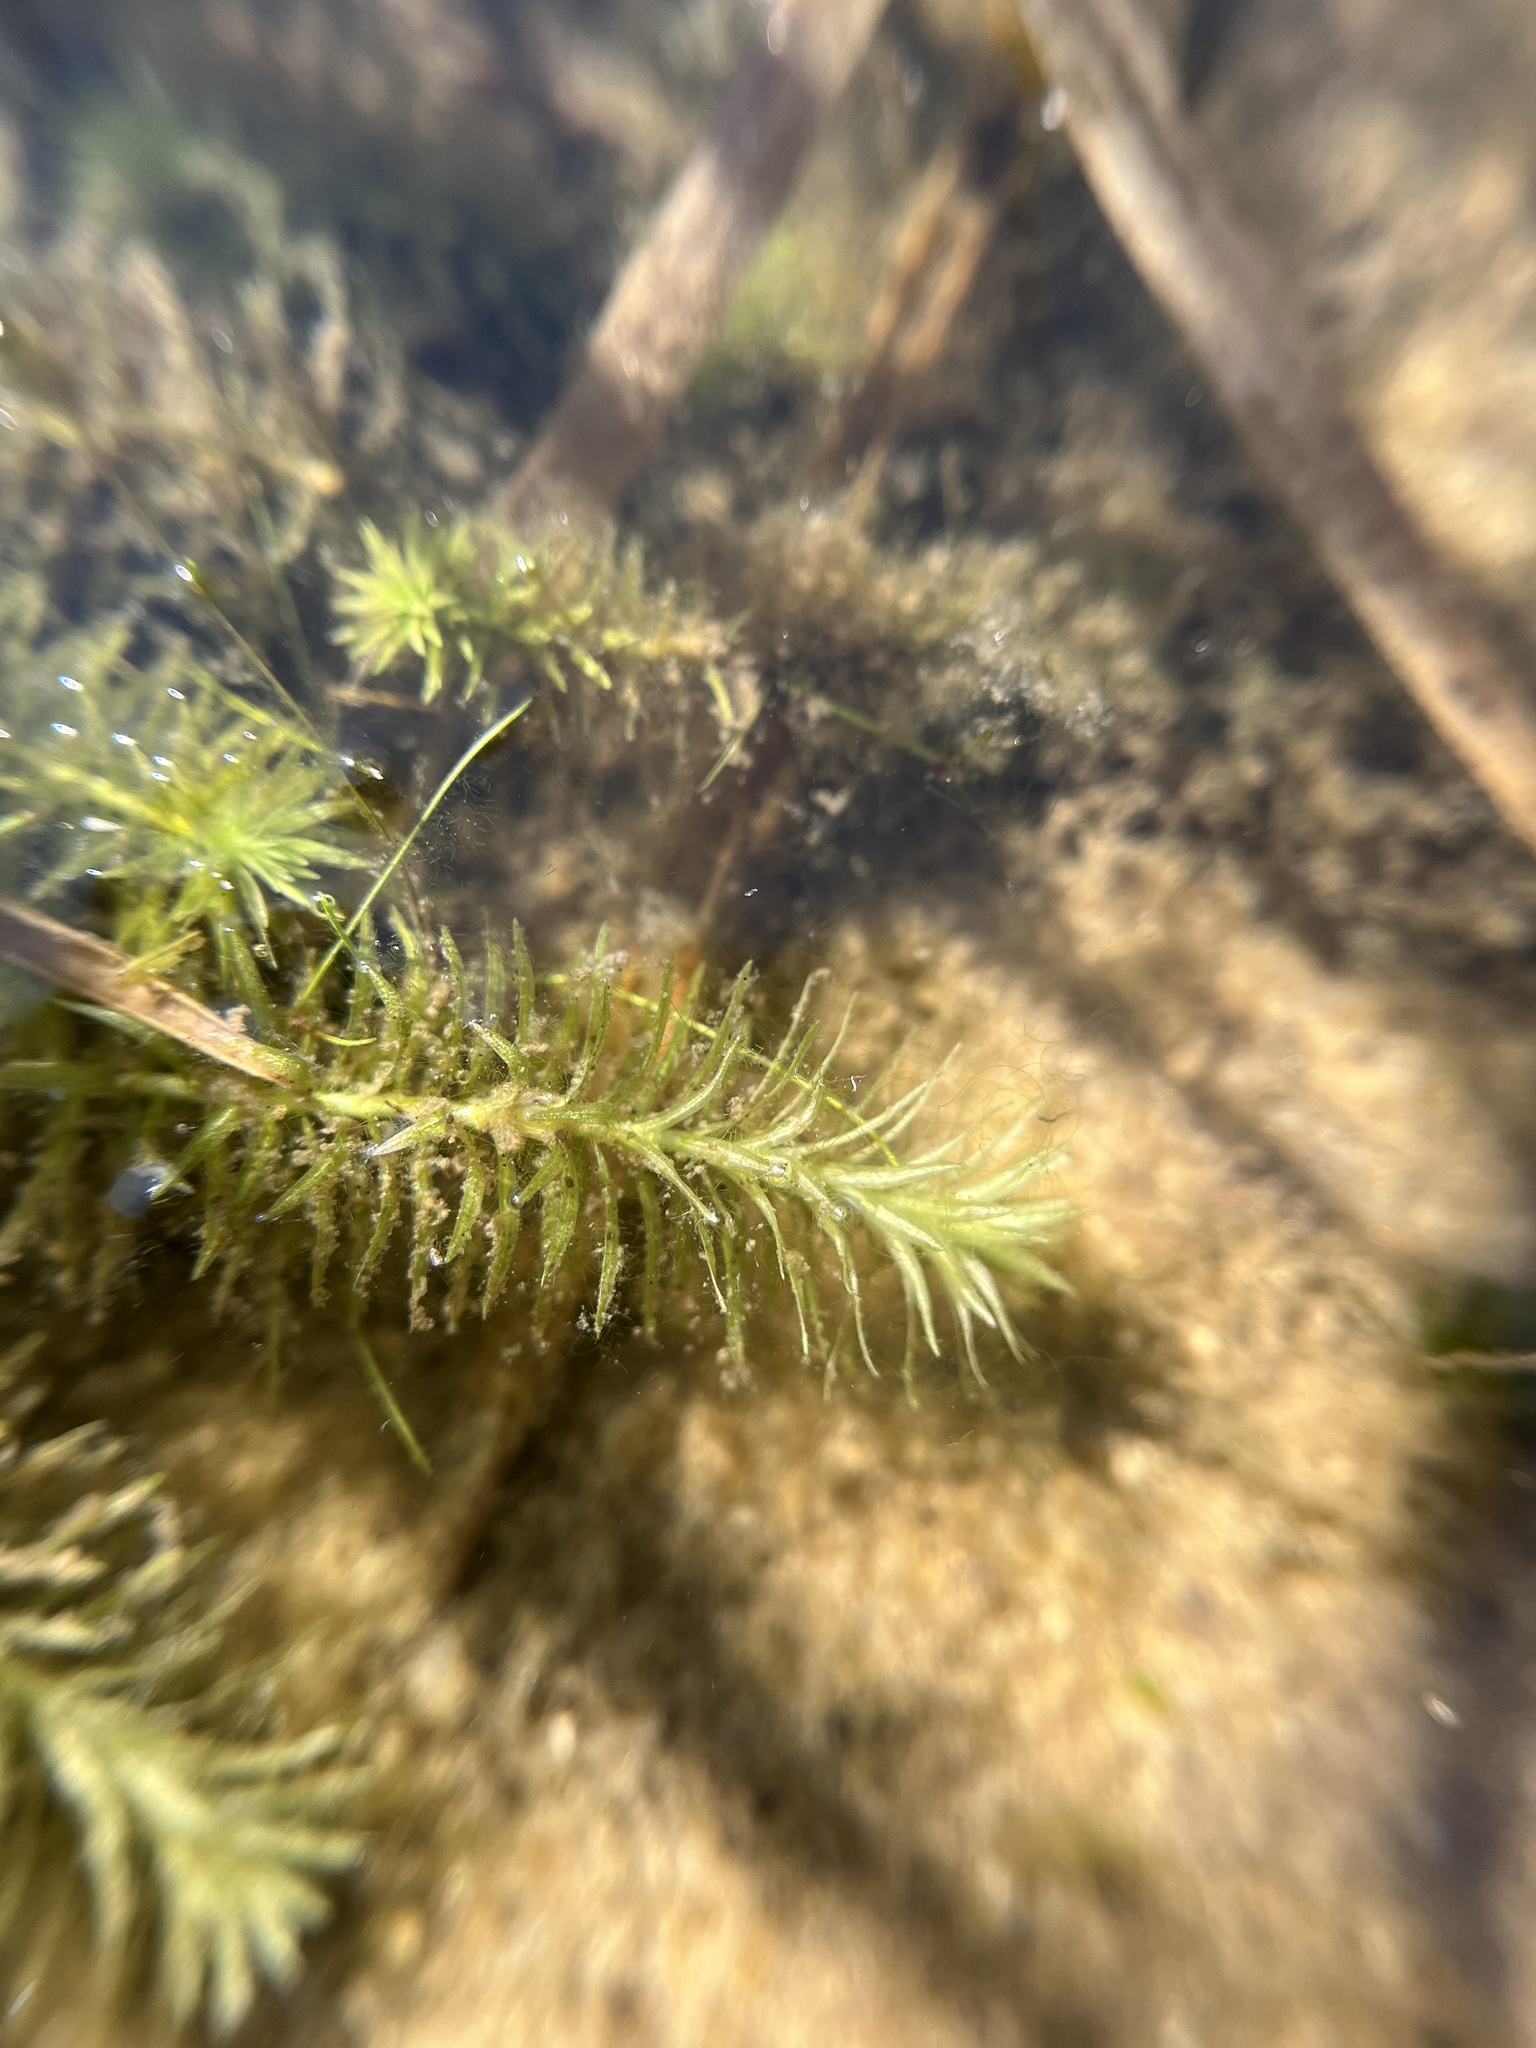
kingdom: Plantae
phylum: Tracheophyta
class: Liliopsida
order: Poales
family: Mayacaceae
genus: Mayaca
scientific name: Mayaca fluviatilis
